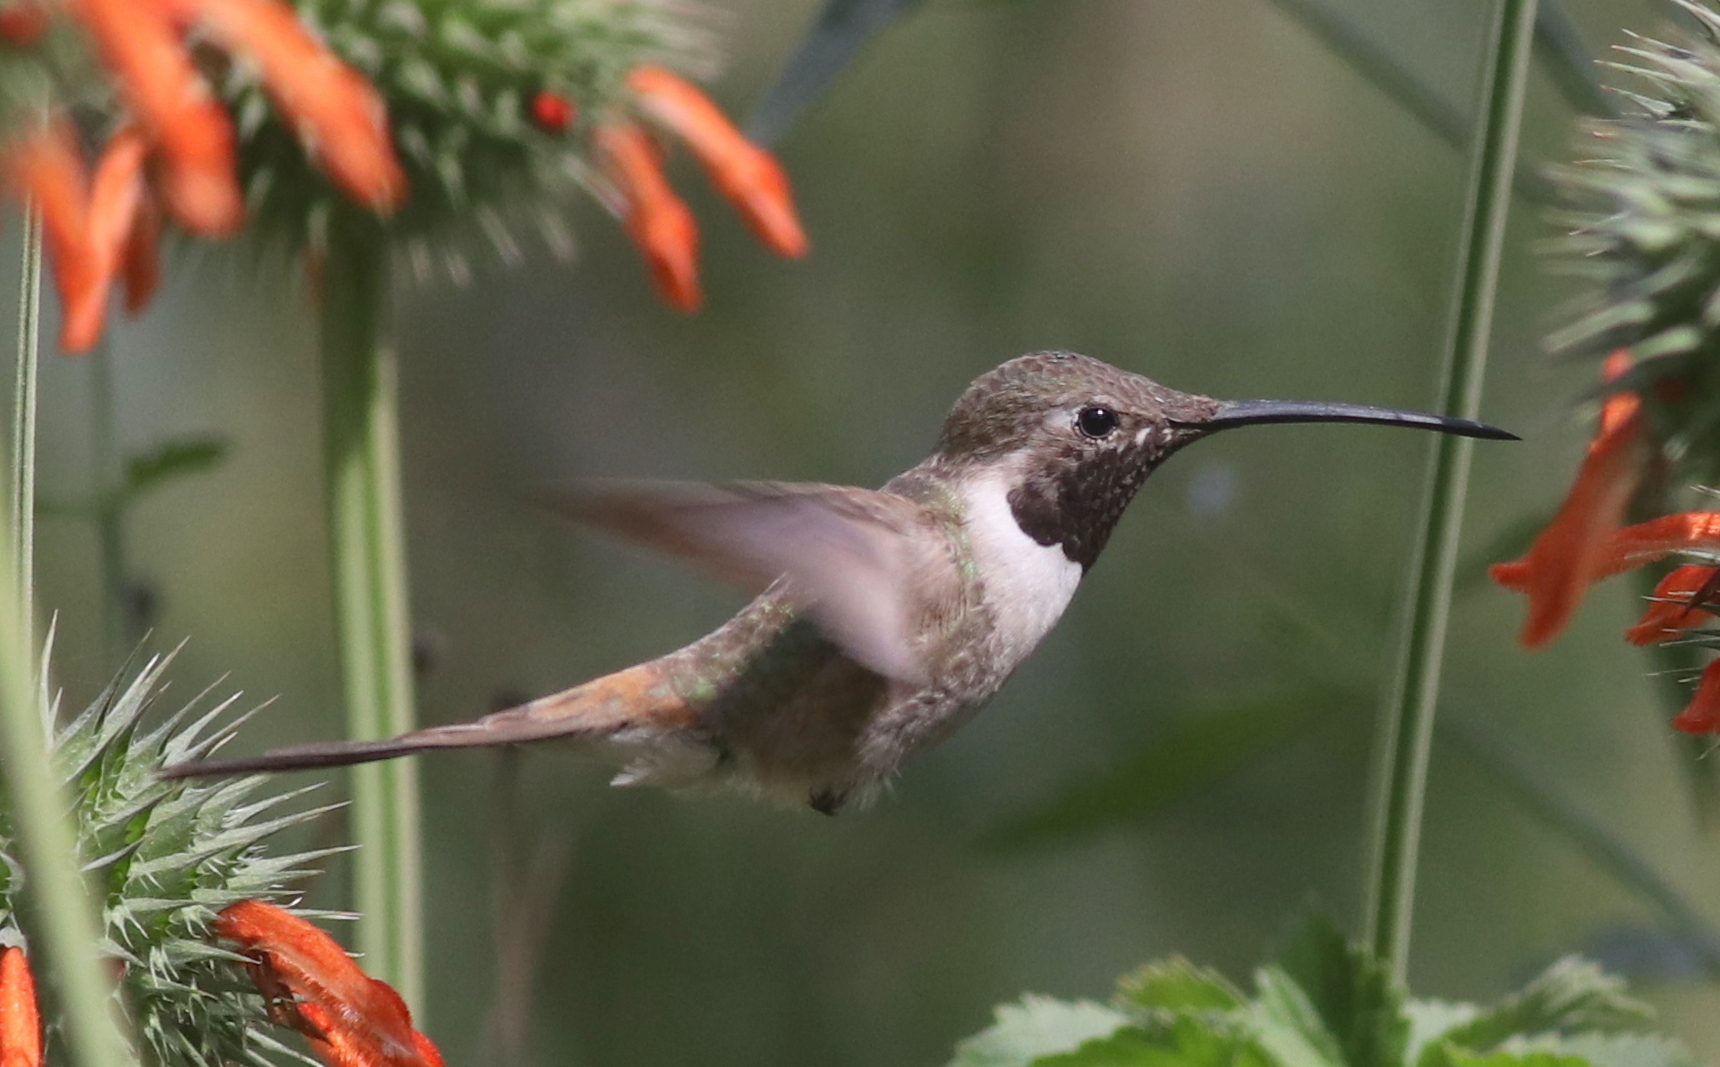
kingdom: Animalia
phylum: Chordata
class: Aves
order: Apodiformes
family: Trochilidae
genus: Rhodopis
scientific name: Rhodopis vesper
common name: Oasis hummingbird
